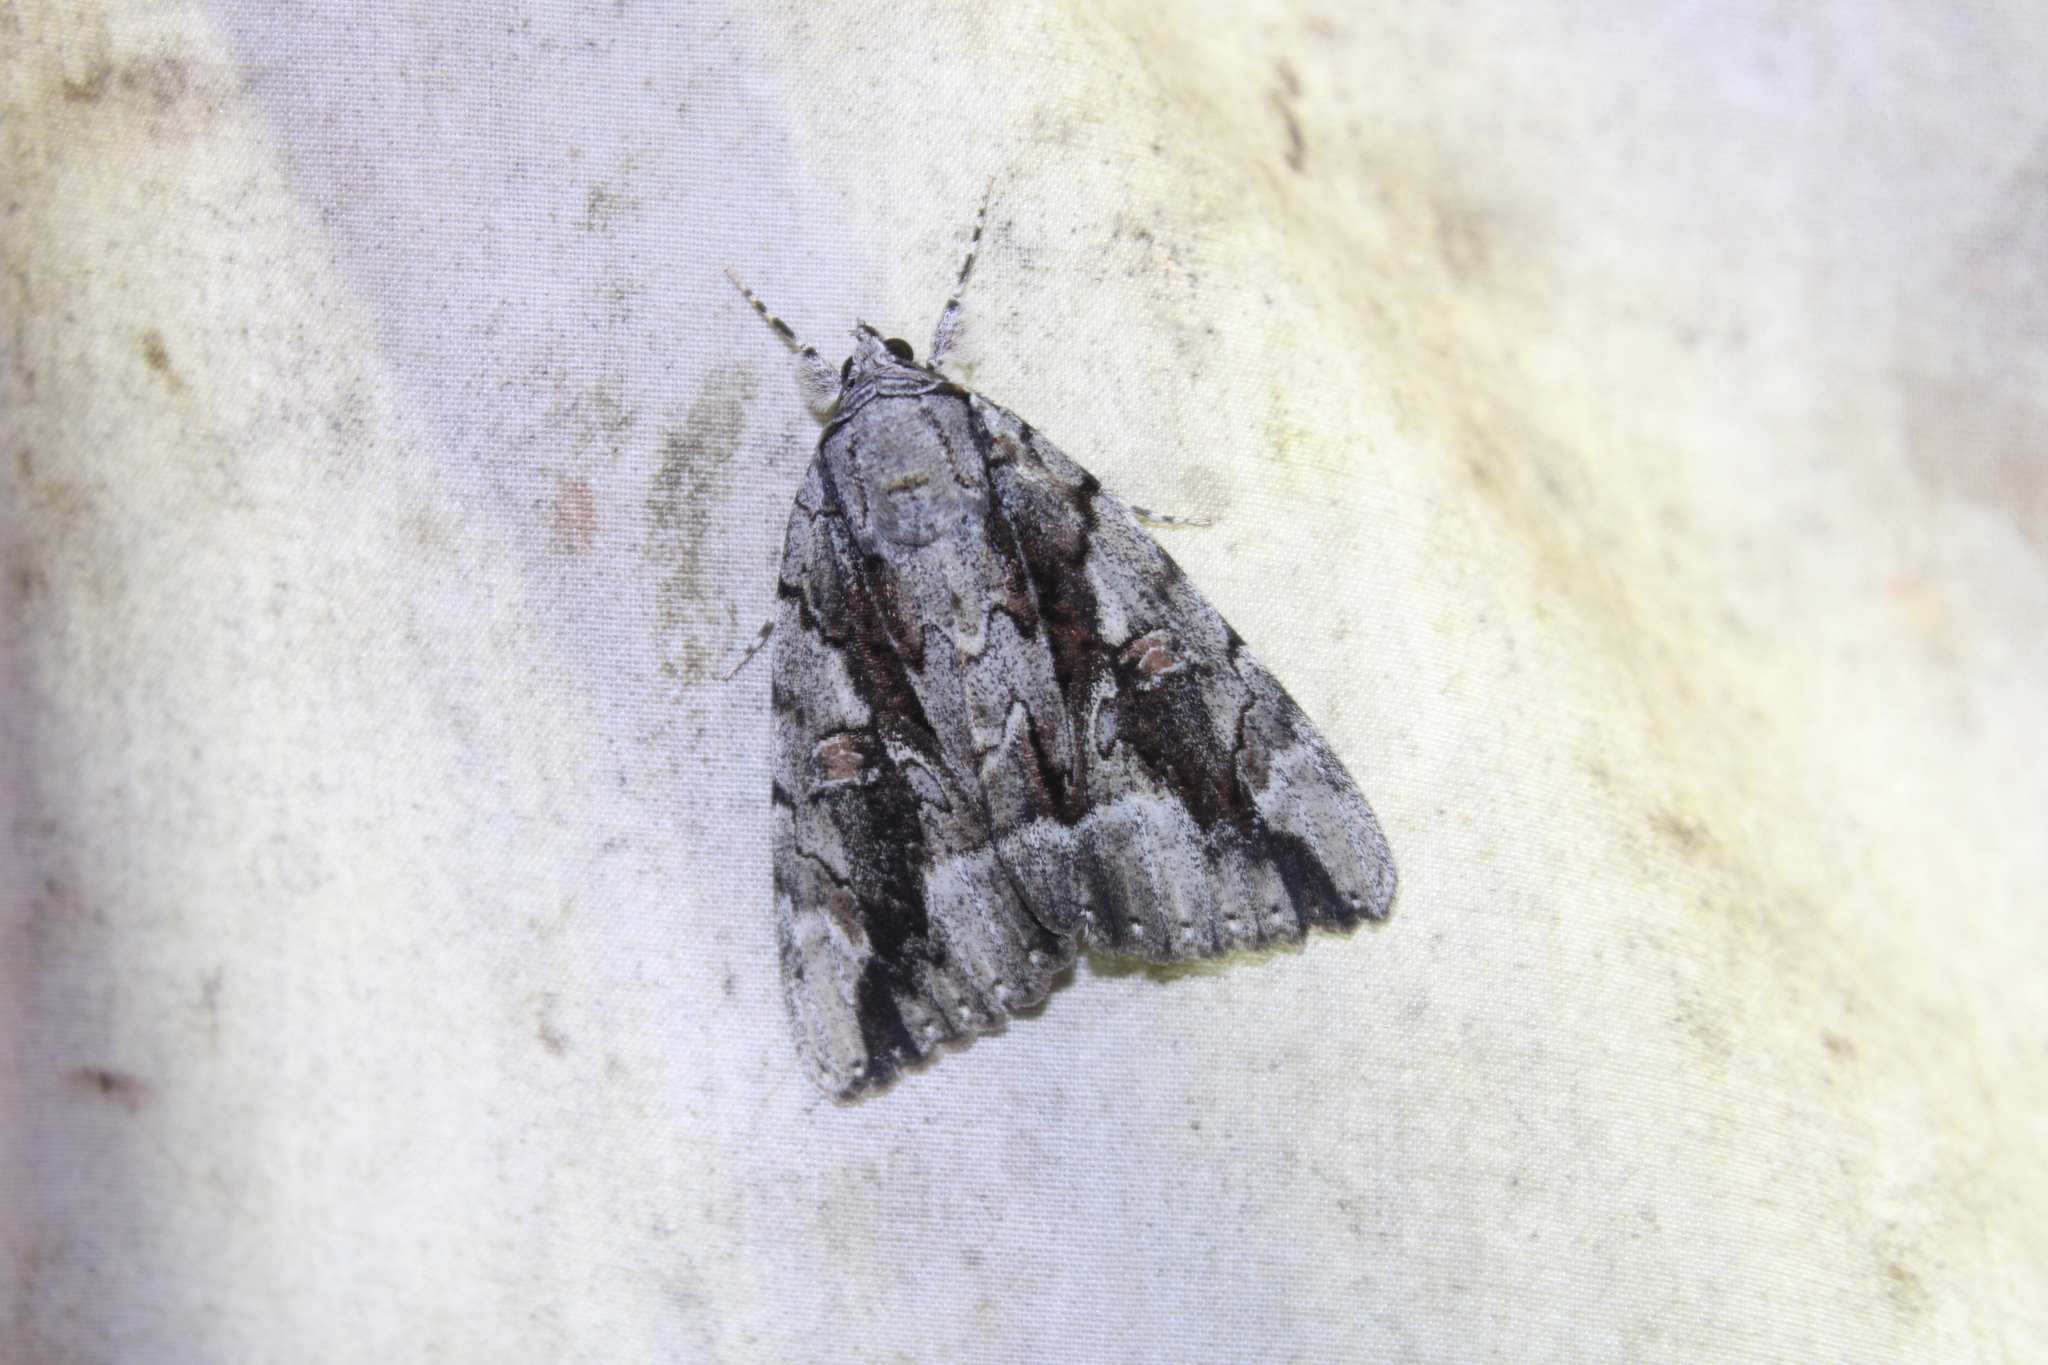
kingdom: Animalia
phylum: Arthropoda
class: Insecta
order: Lepidoptera
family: Erebidae
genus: Catocala
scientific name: Catocala flebilis
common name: Mournful underwing
